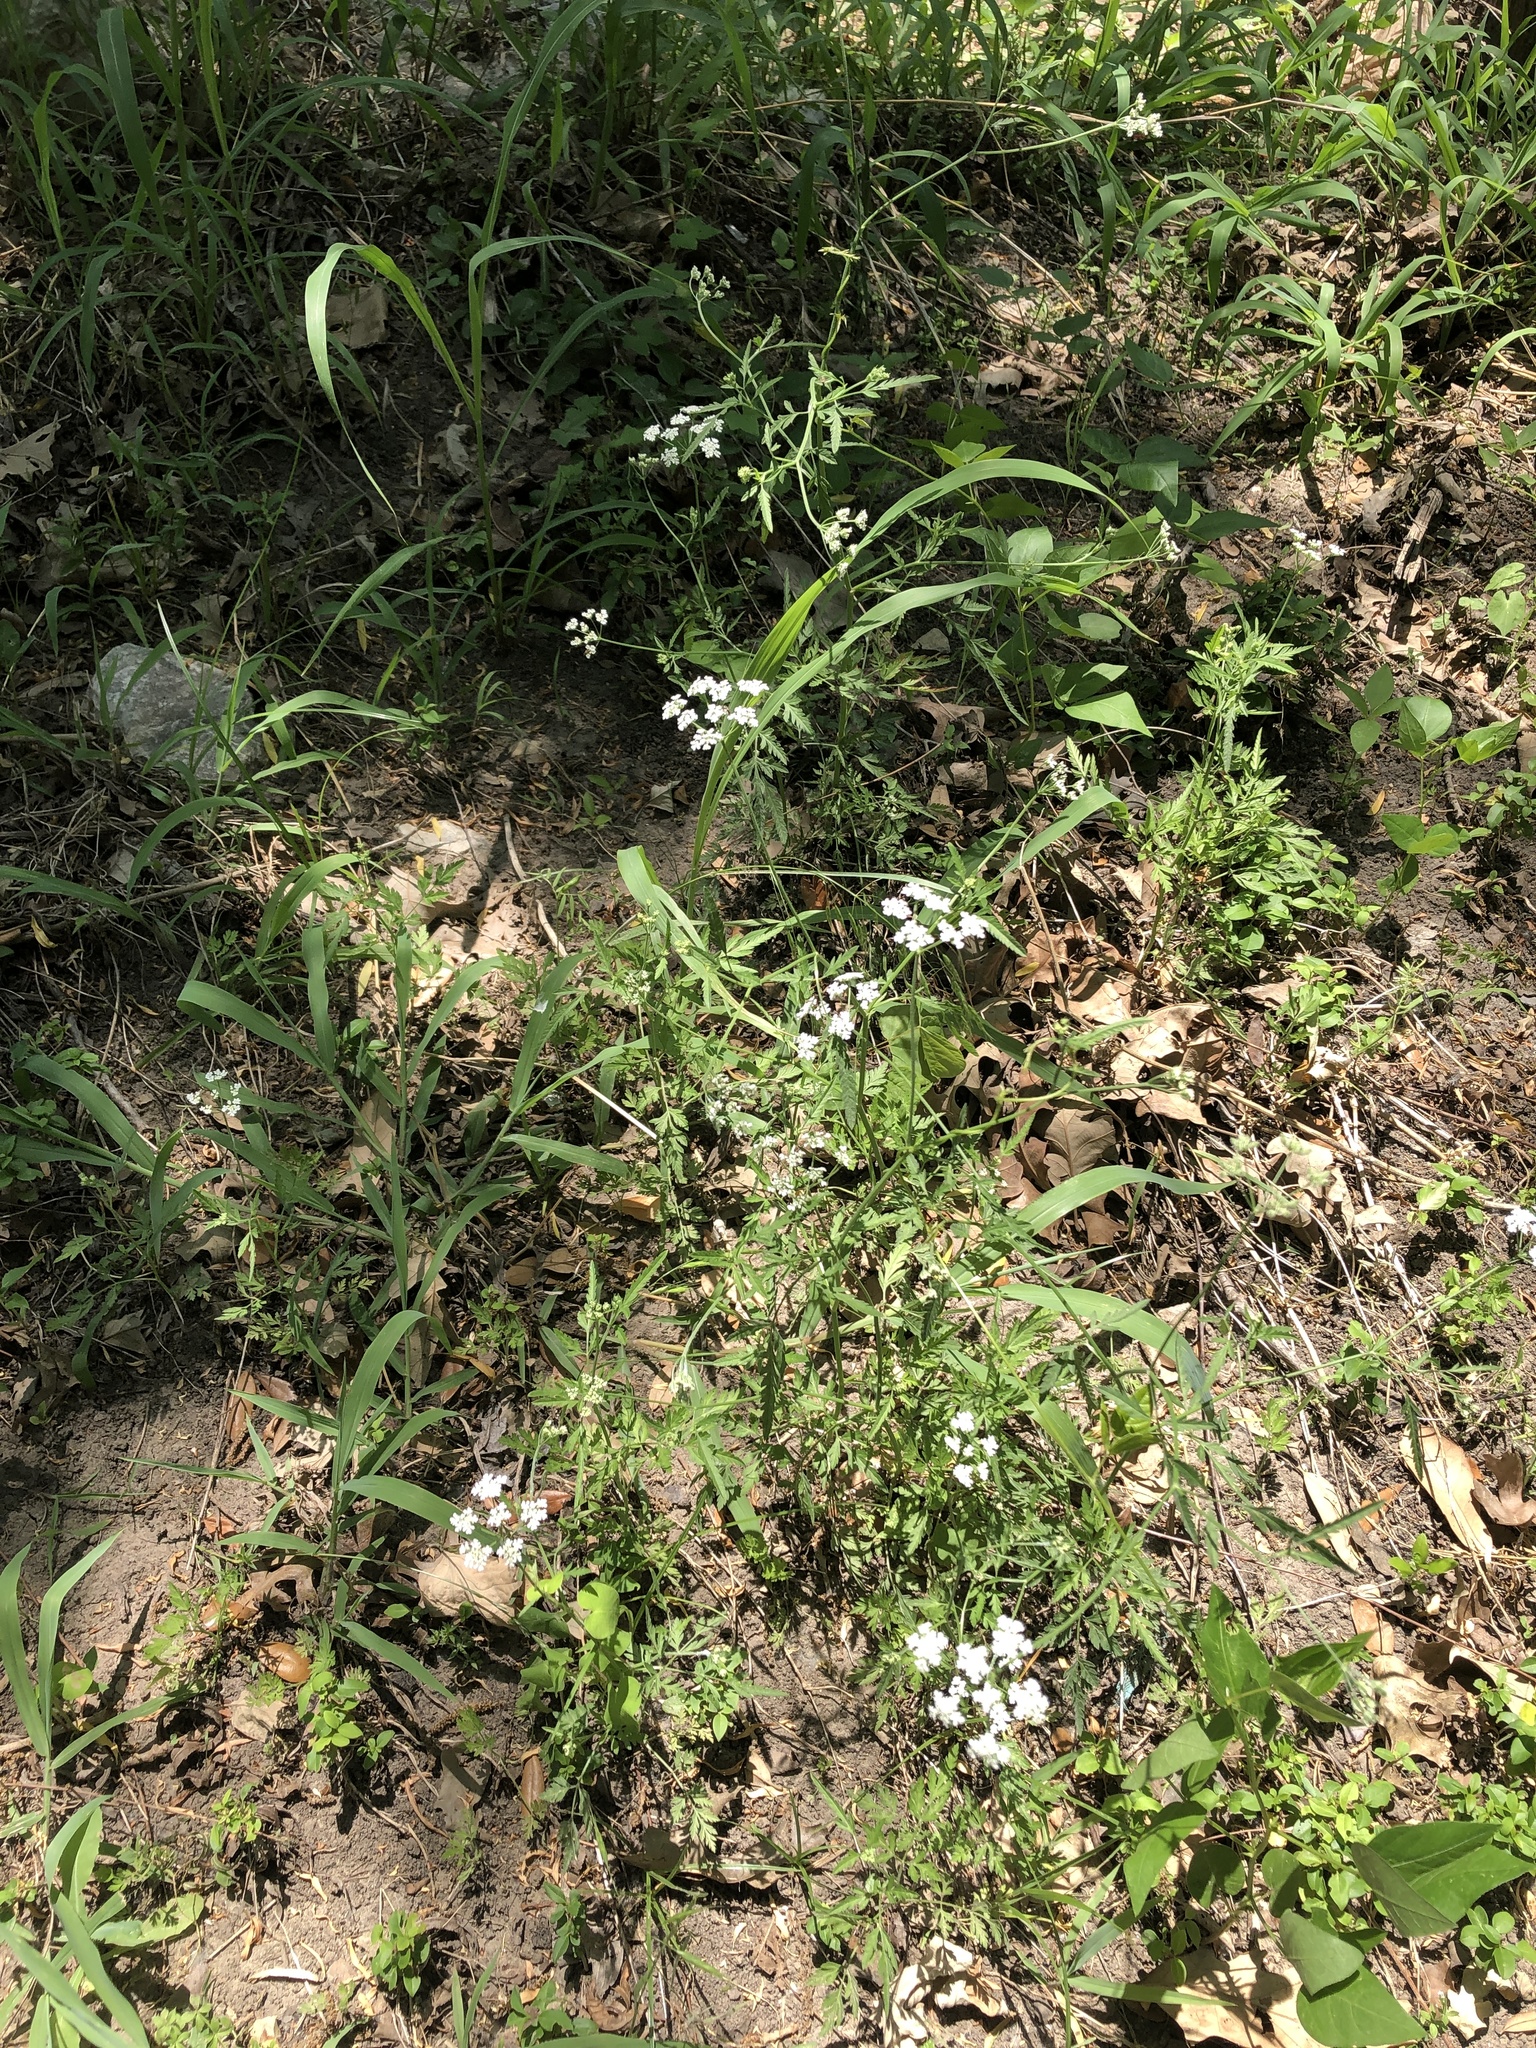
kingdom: Plantae
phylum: Tracheophyta
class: Magnoliopsida
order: Apiales
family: Apiaceae
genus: Torilis
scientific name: Torilis arvensis
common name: Spreading hedge-parsley
